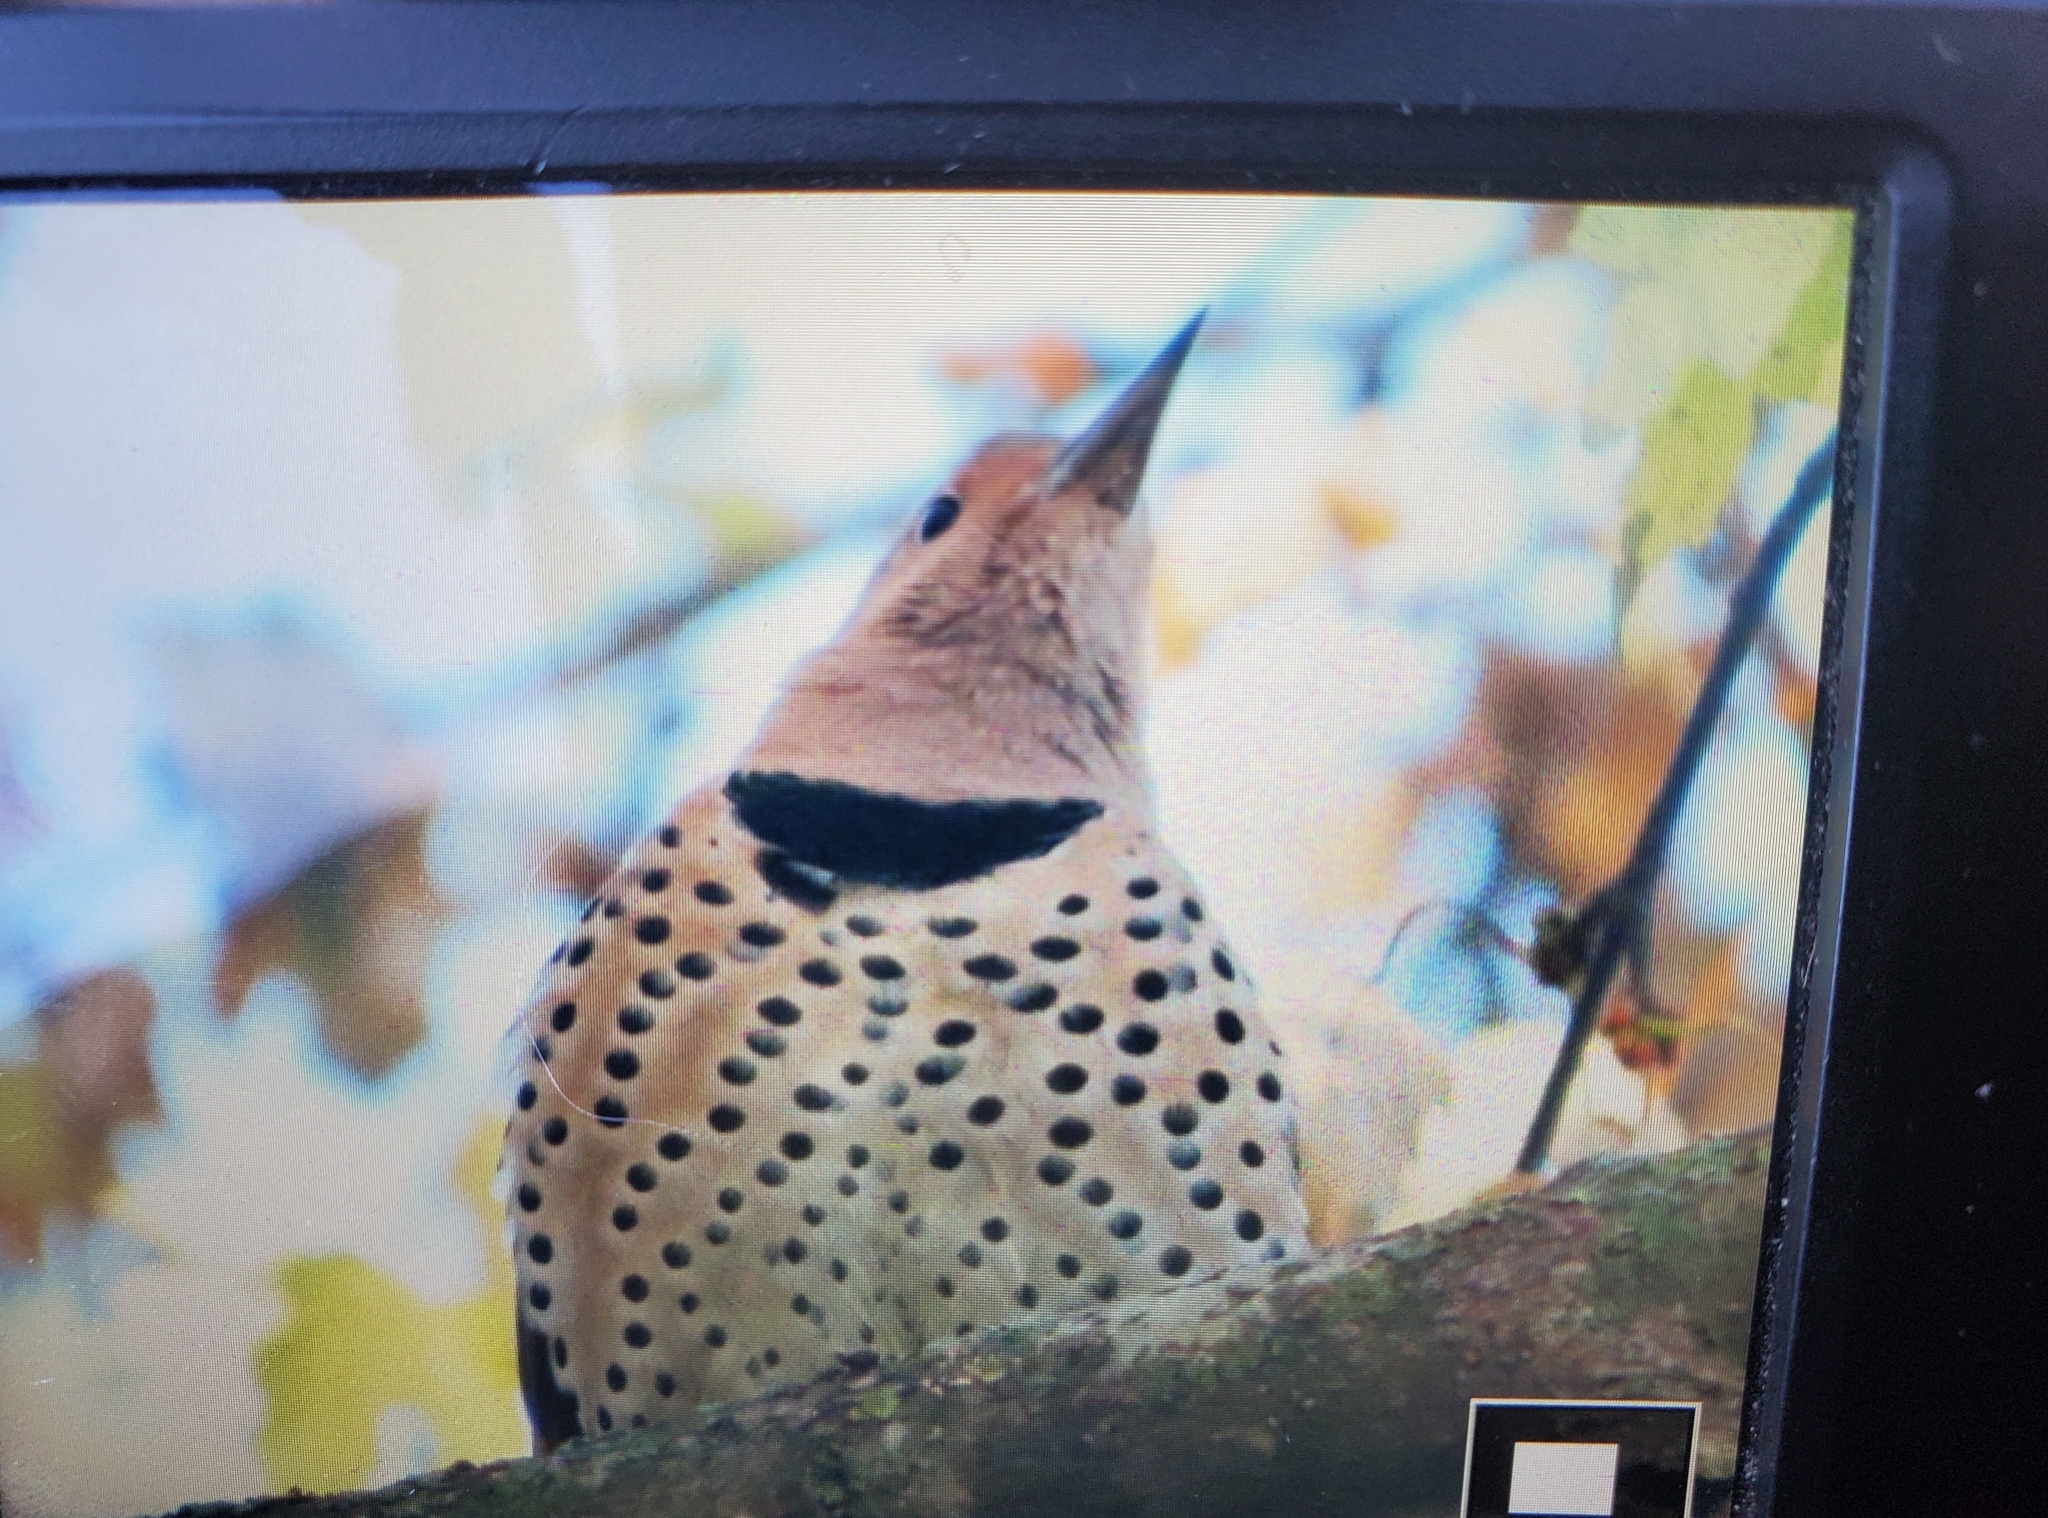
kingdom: Animalia
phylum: Chordata
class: Aves
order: Piciformes
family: Picidae
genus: Colaptes
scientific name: Colaptes auratus
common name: Northern flicker
